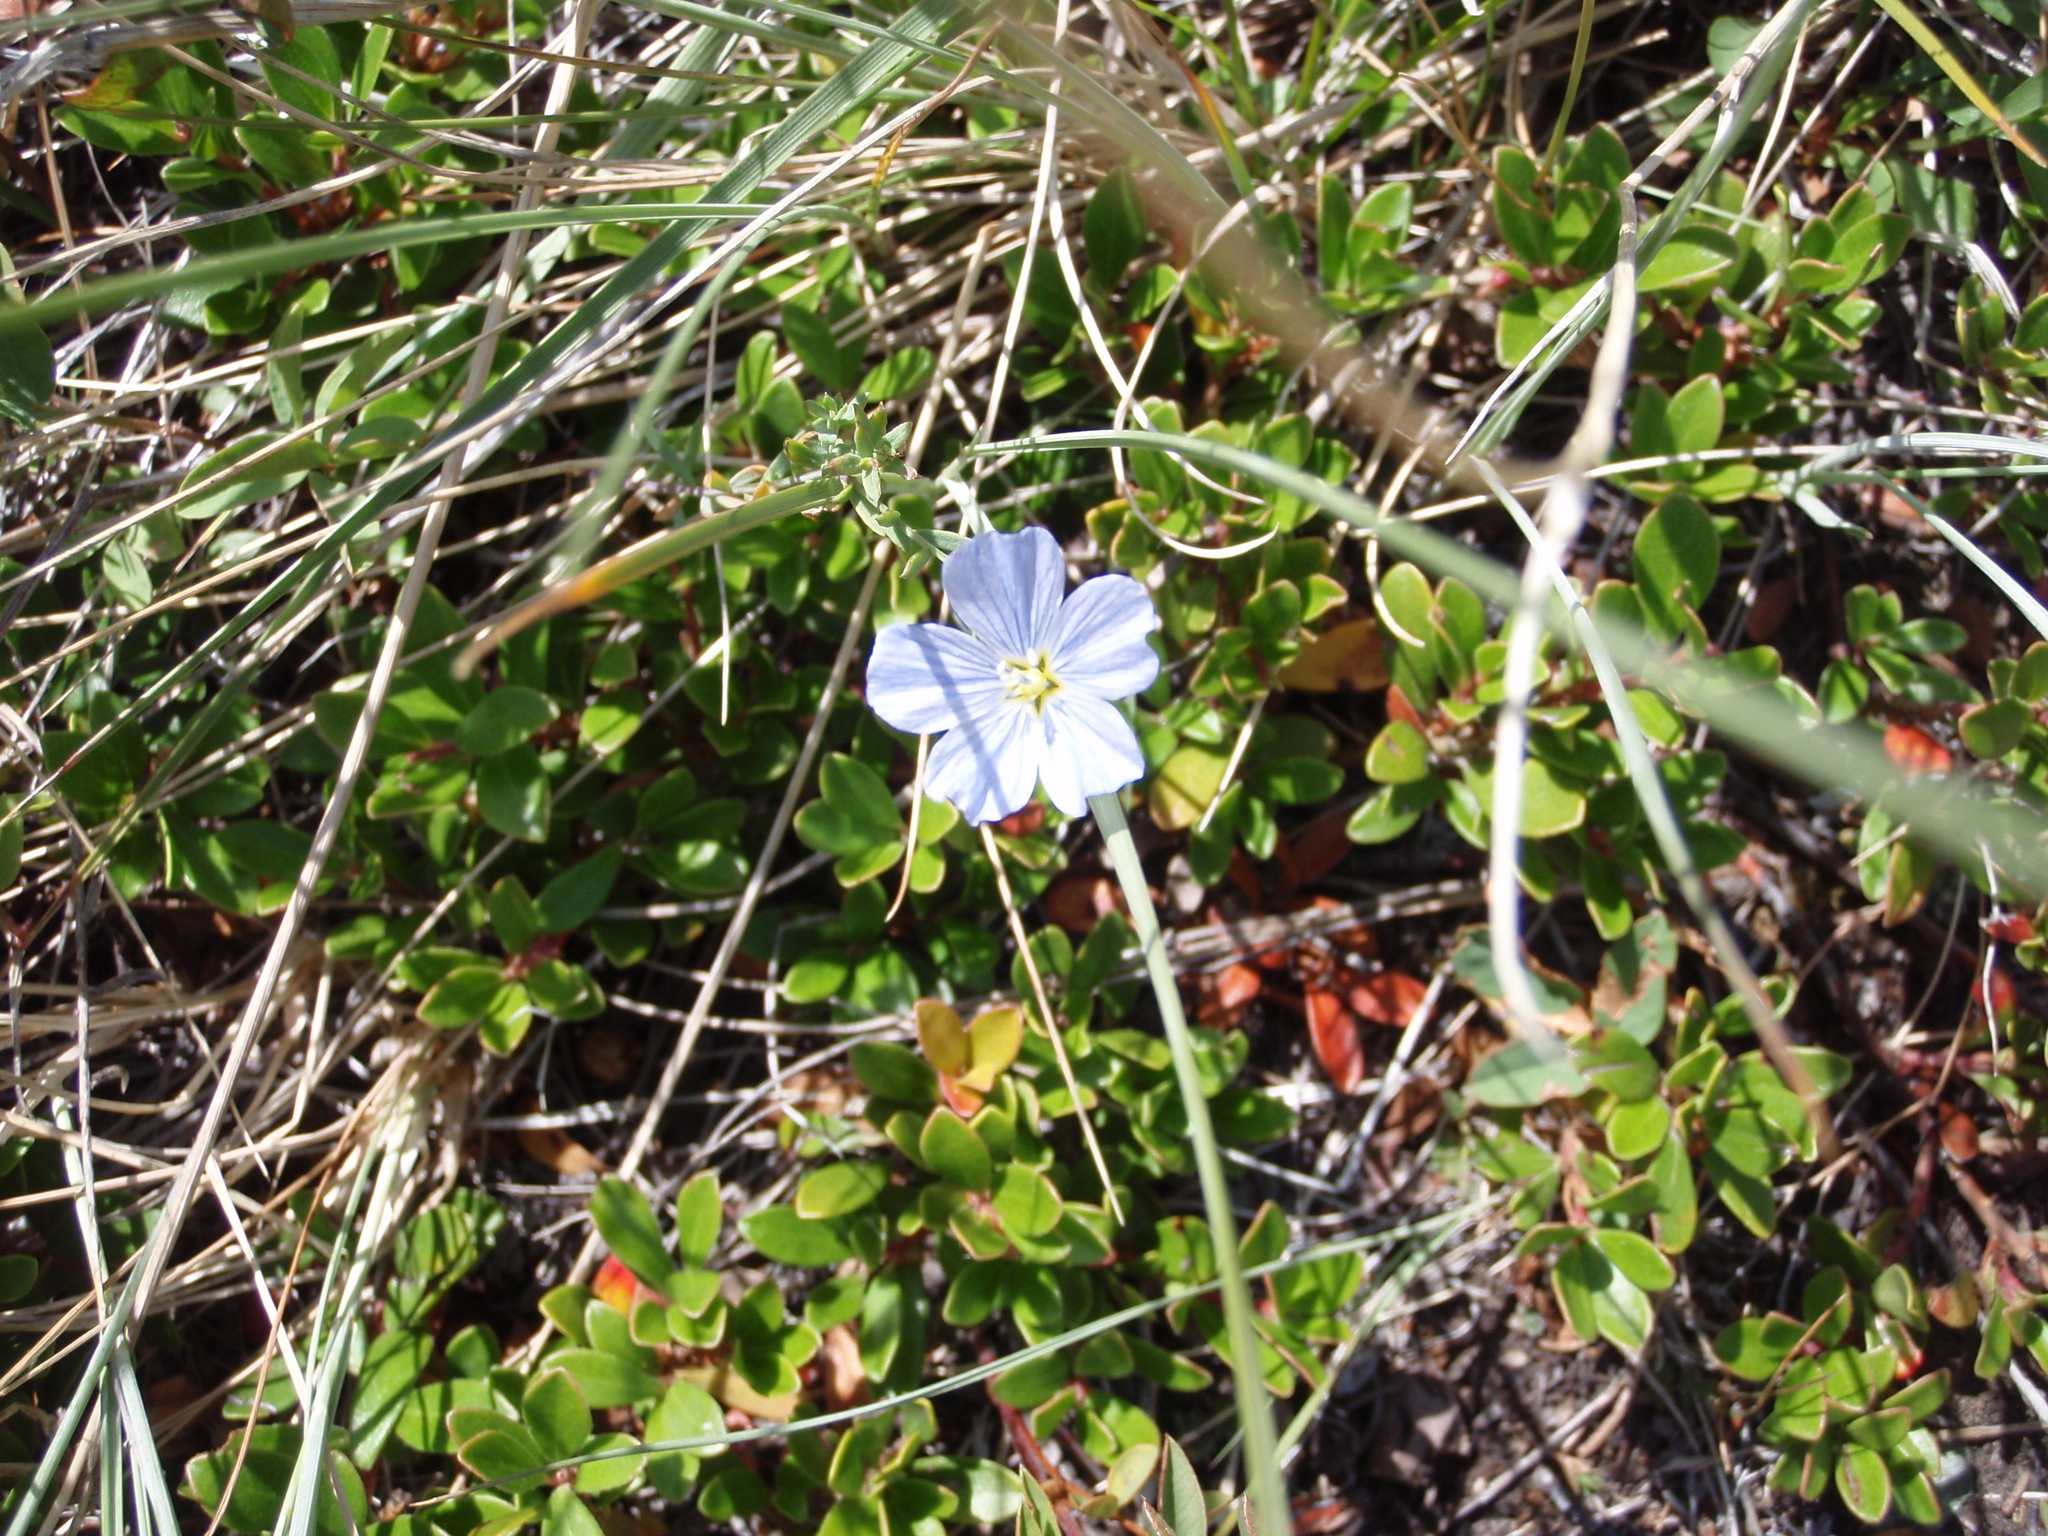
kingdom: Plantae
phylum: Tracheophyta
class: Magnoliopsida
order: Malpighiales
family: Linaceae
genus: Linum
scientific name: Linum lewisii
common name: Prairie flax
